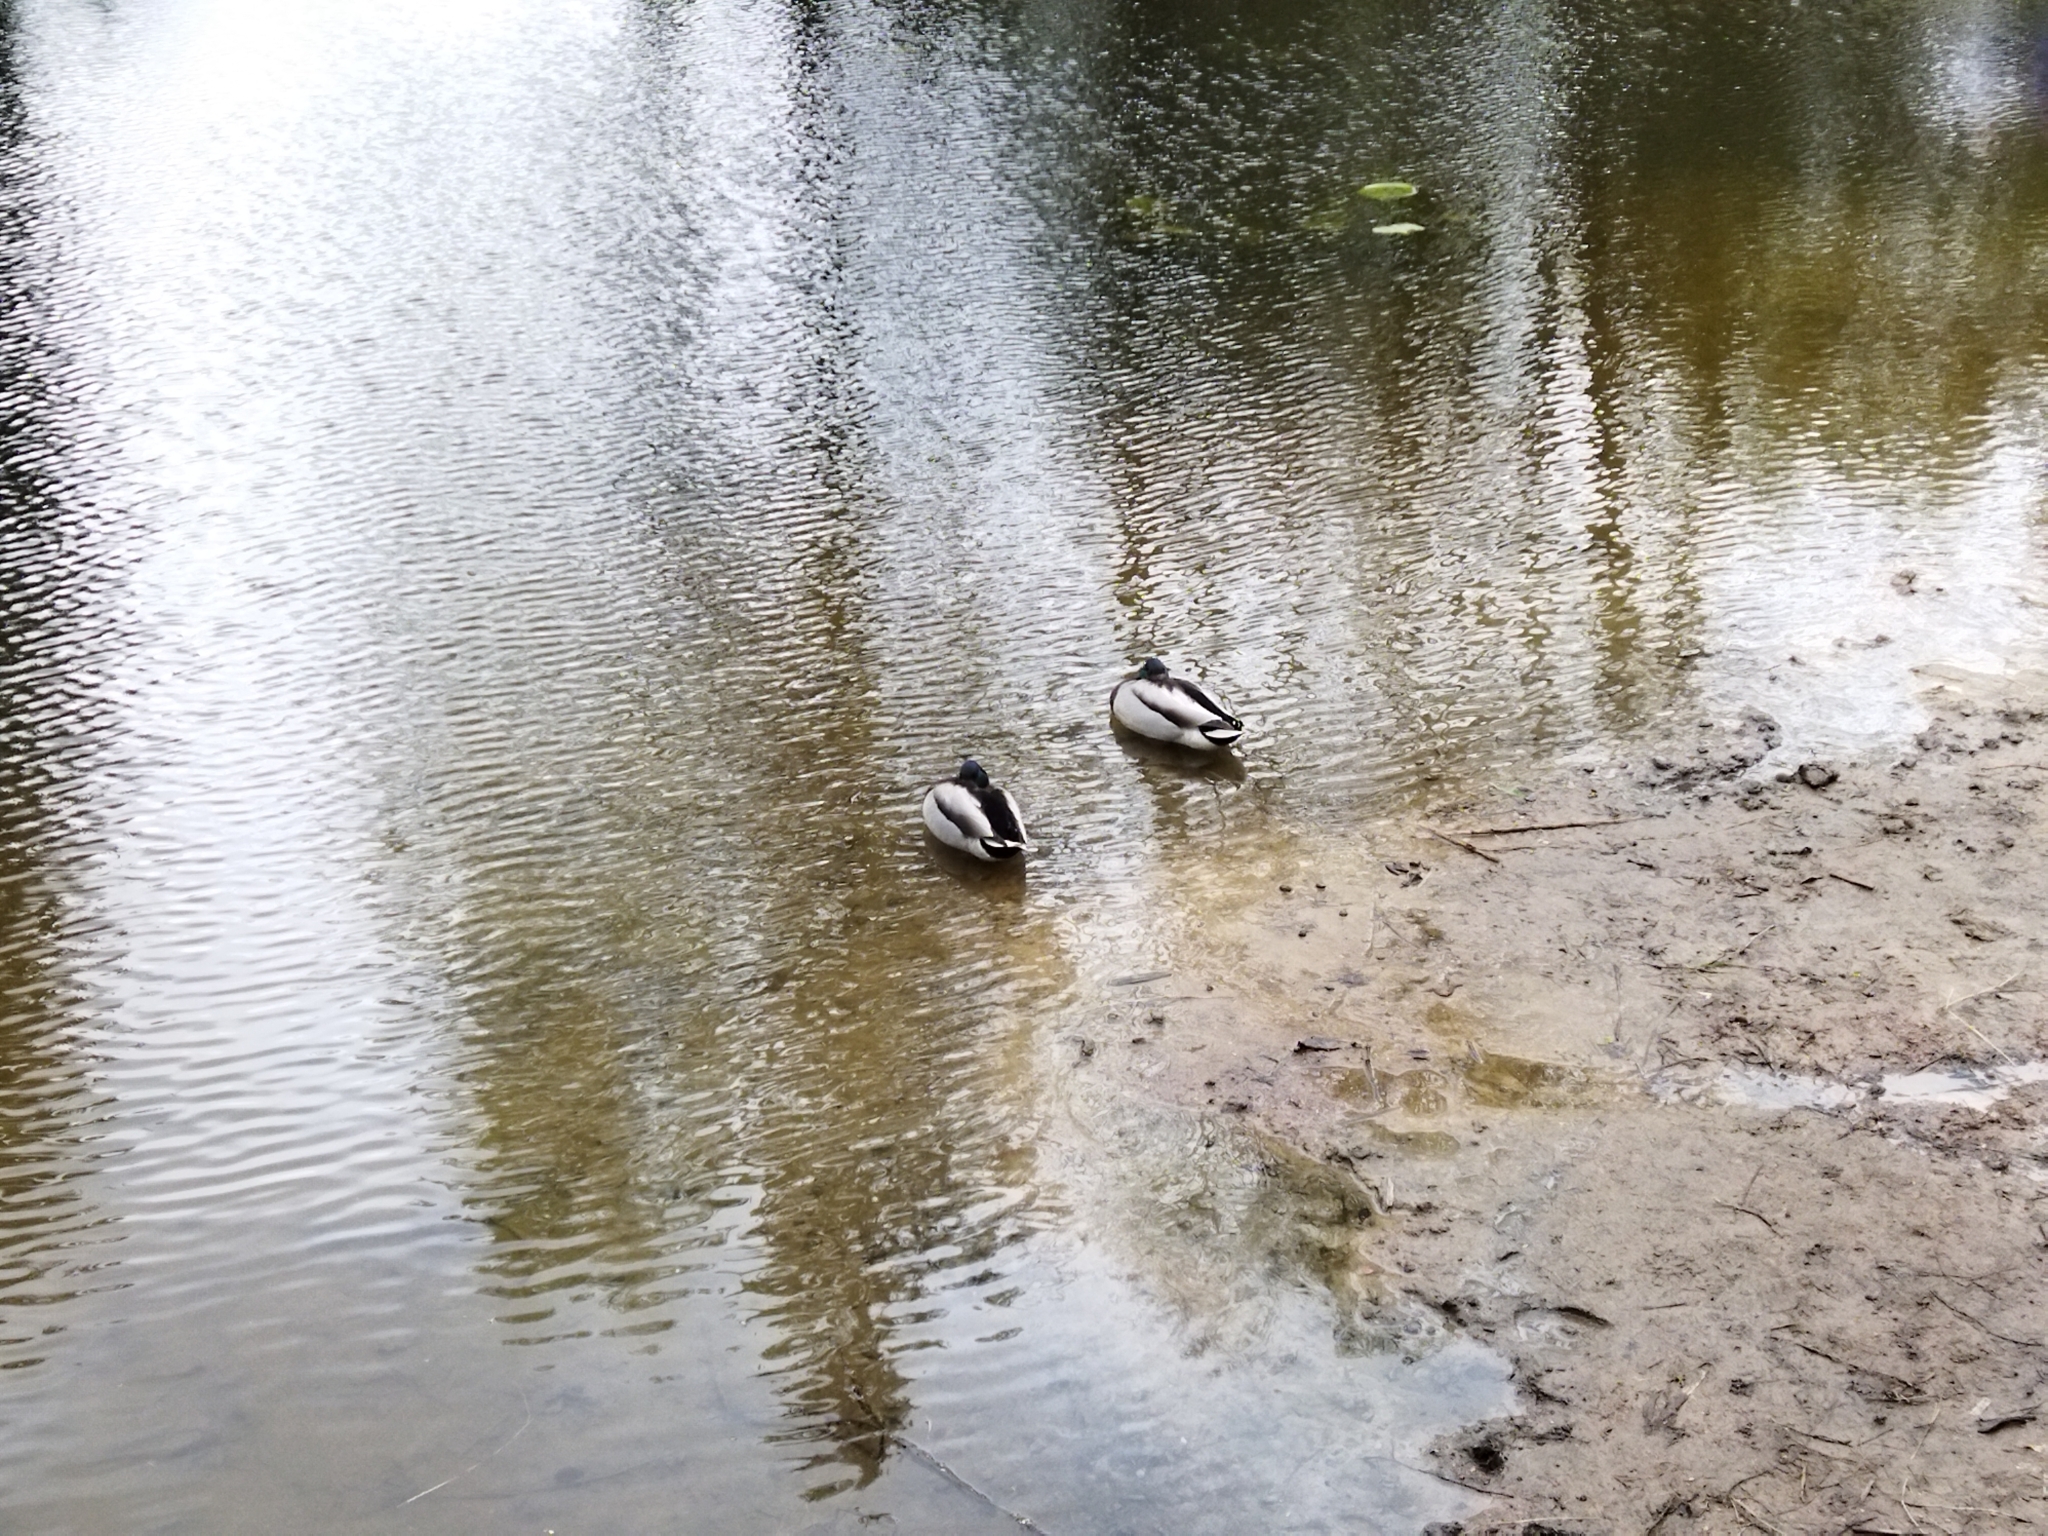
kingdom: Animalia
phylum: Chordata
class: Aves
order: Anseriformes
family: Anatidae
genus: Anas
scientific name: Anas platyrhynchos
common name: Mallard
